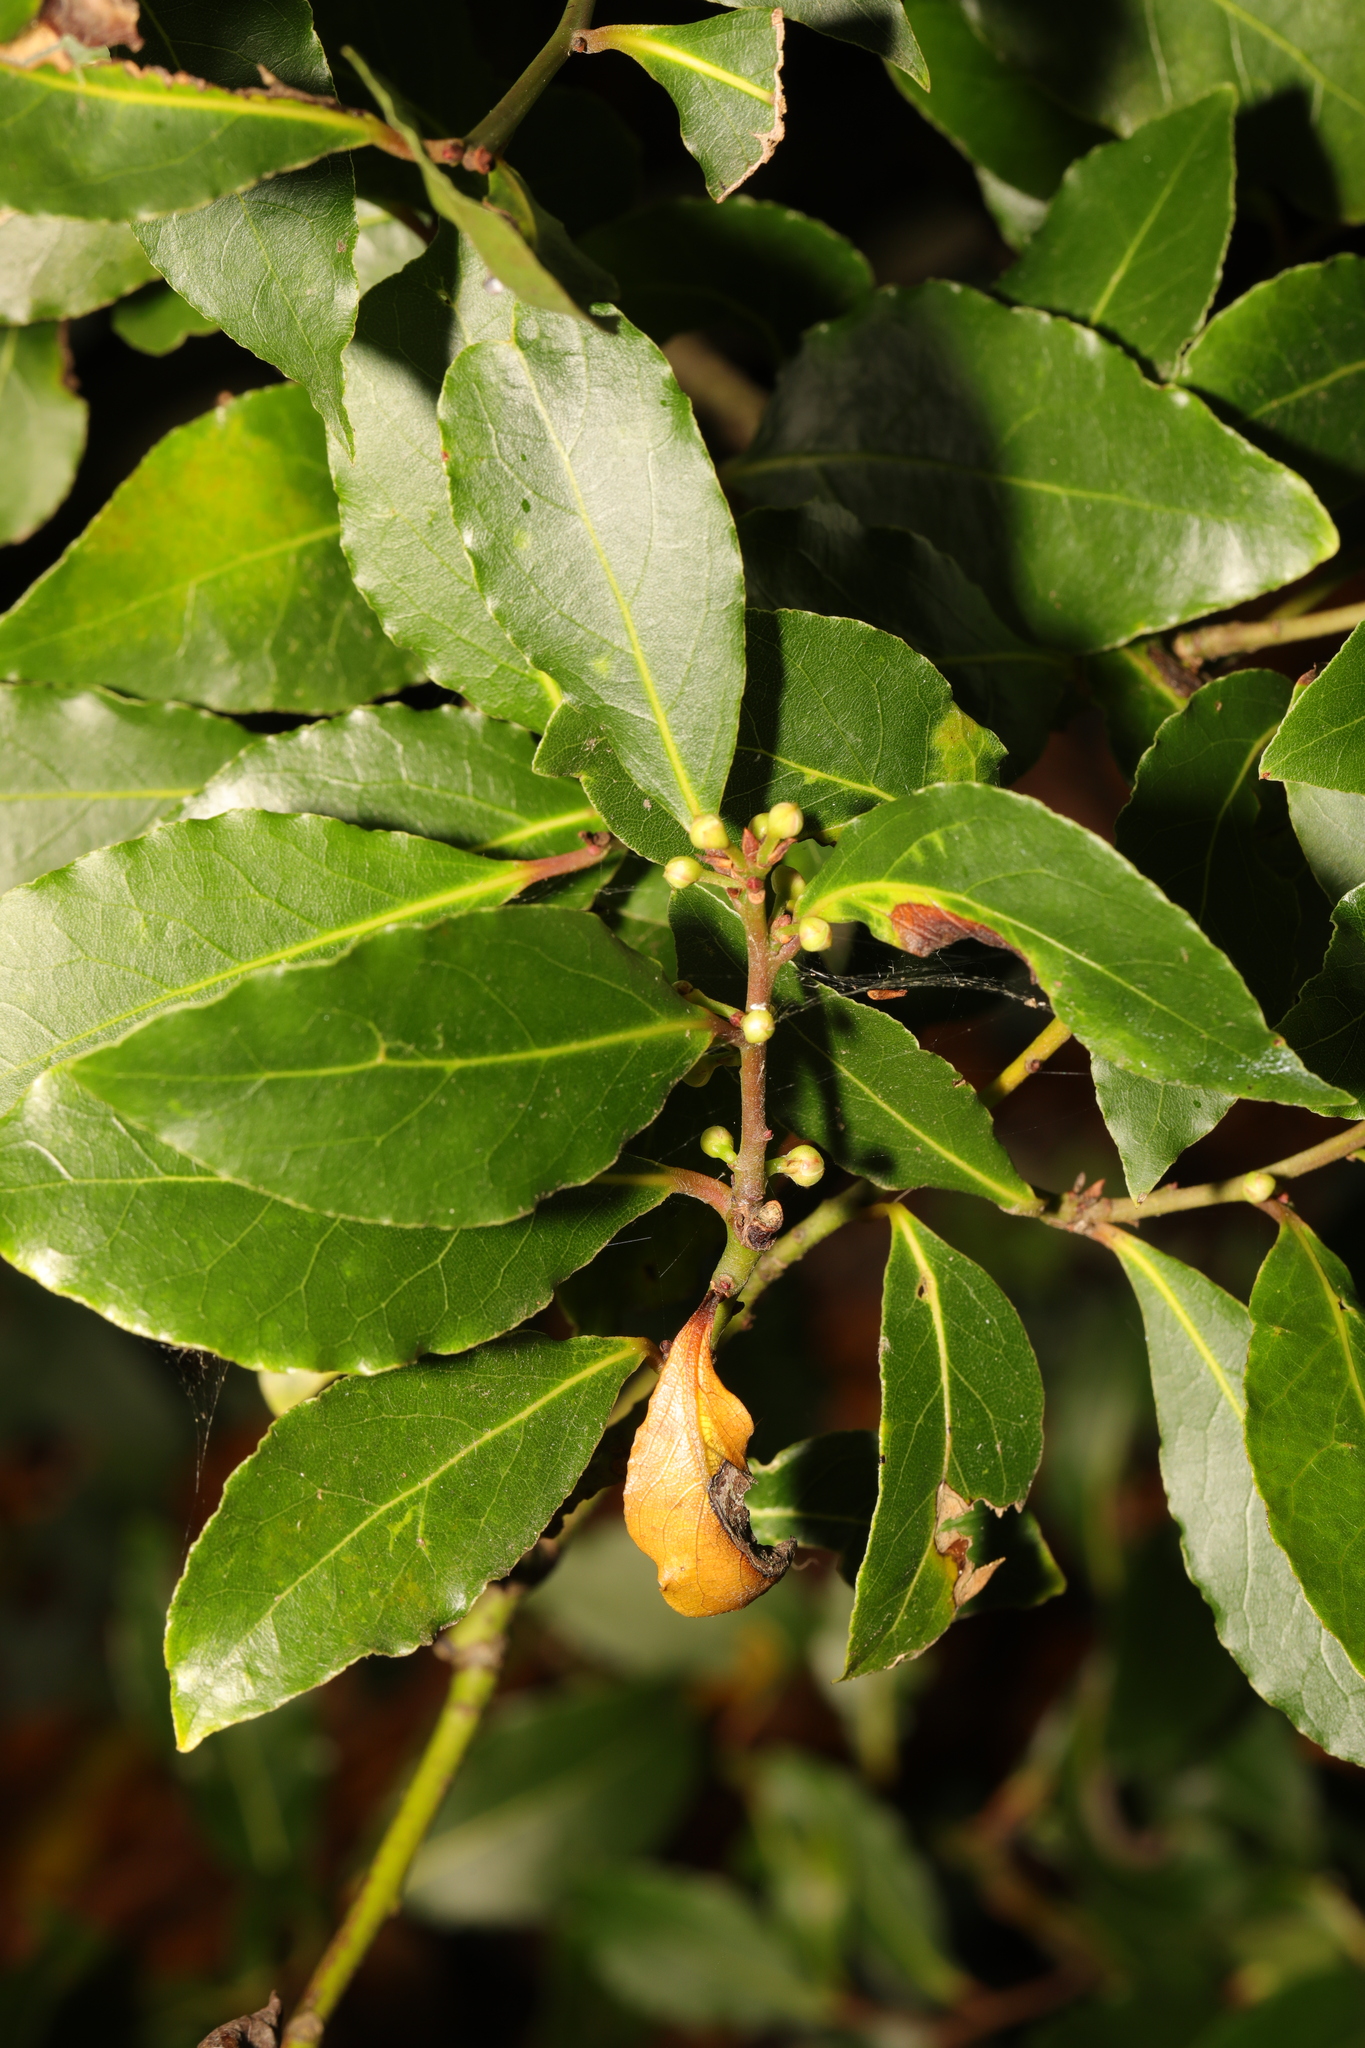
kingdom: Plantae
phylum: Tracheophyta
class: Magnoliopsida
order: Laurales
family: Lauraceae
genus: Laurus
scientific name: Laurus nobilis
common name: Bay
